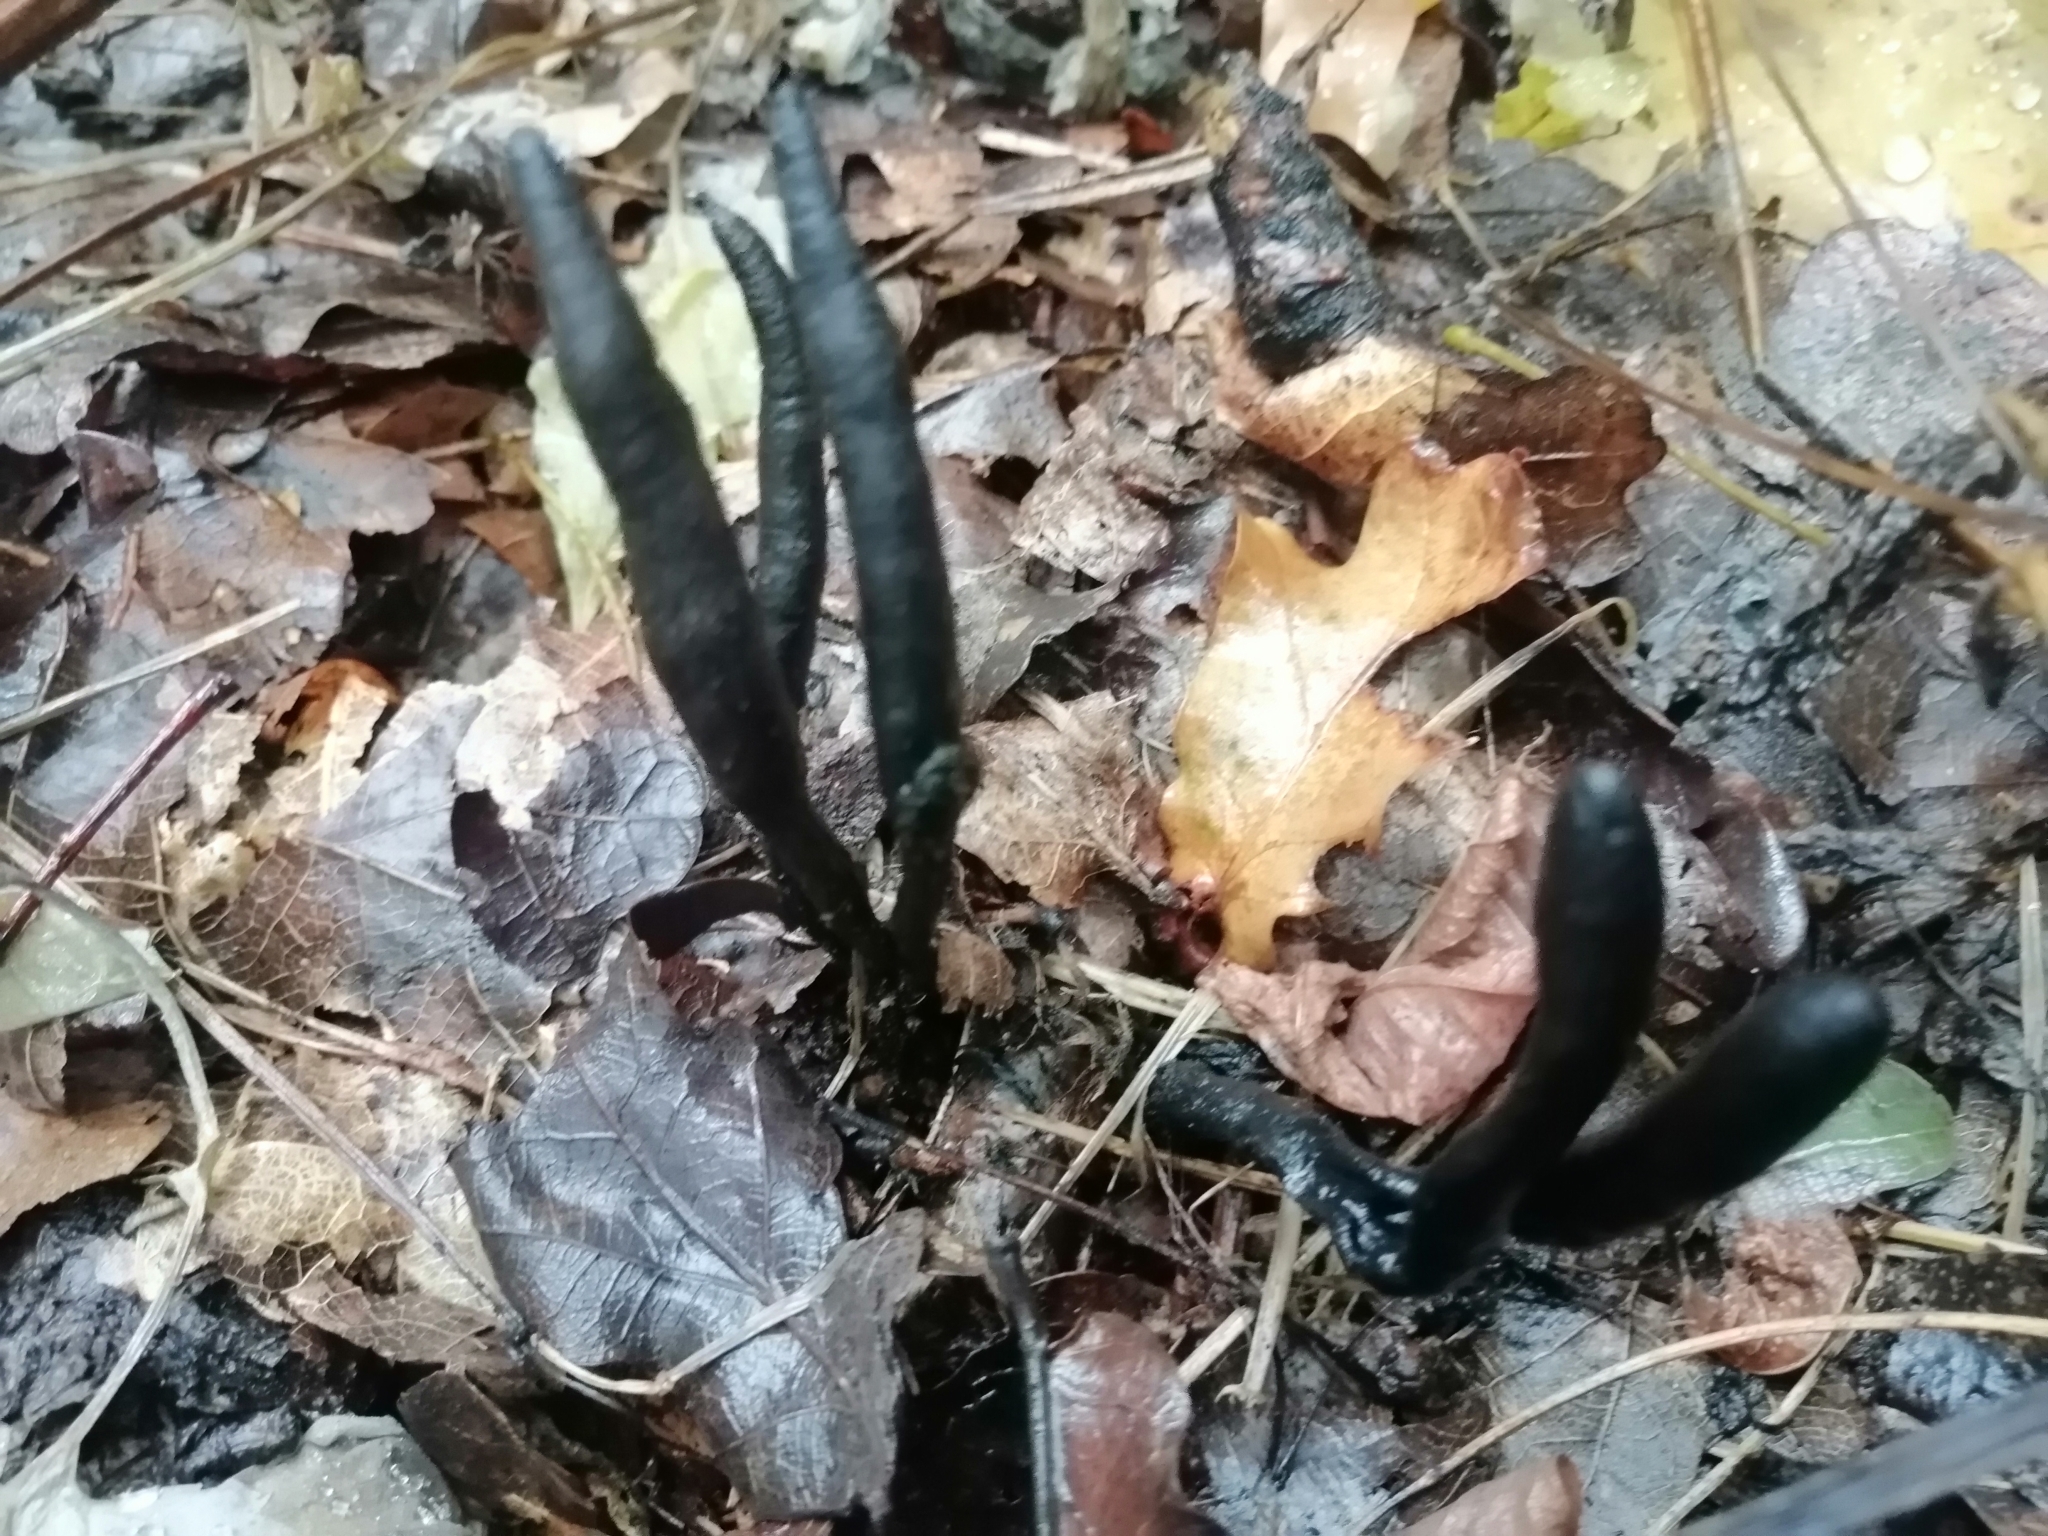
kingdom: Fungi
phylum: Ascomycota
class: Sordariomycetes
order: Xylariales
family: Xylariaceae
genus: Xylaria
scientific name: Xylaria polymorpha
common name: Dead man's fingers
